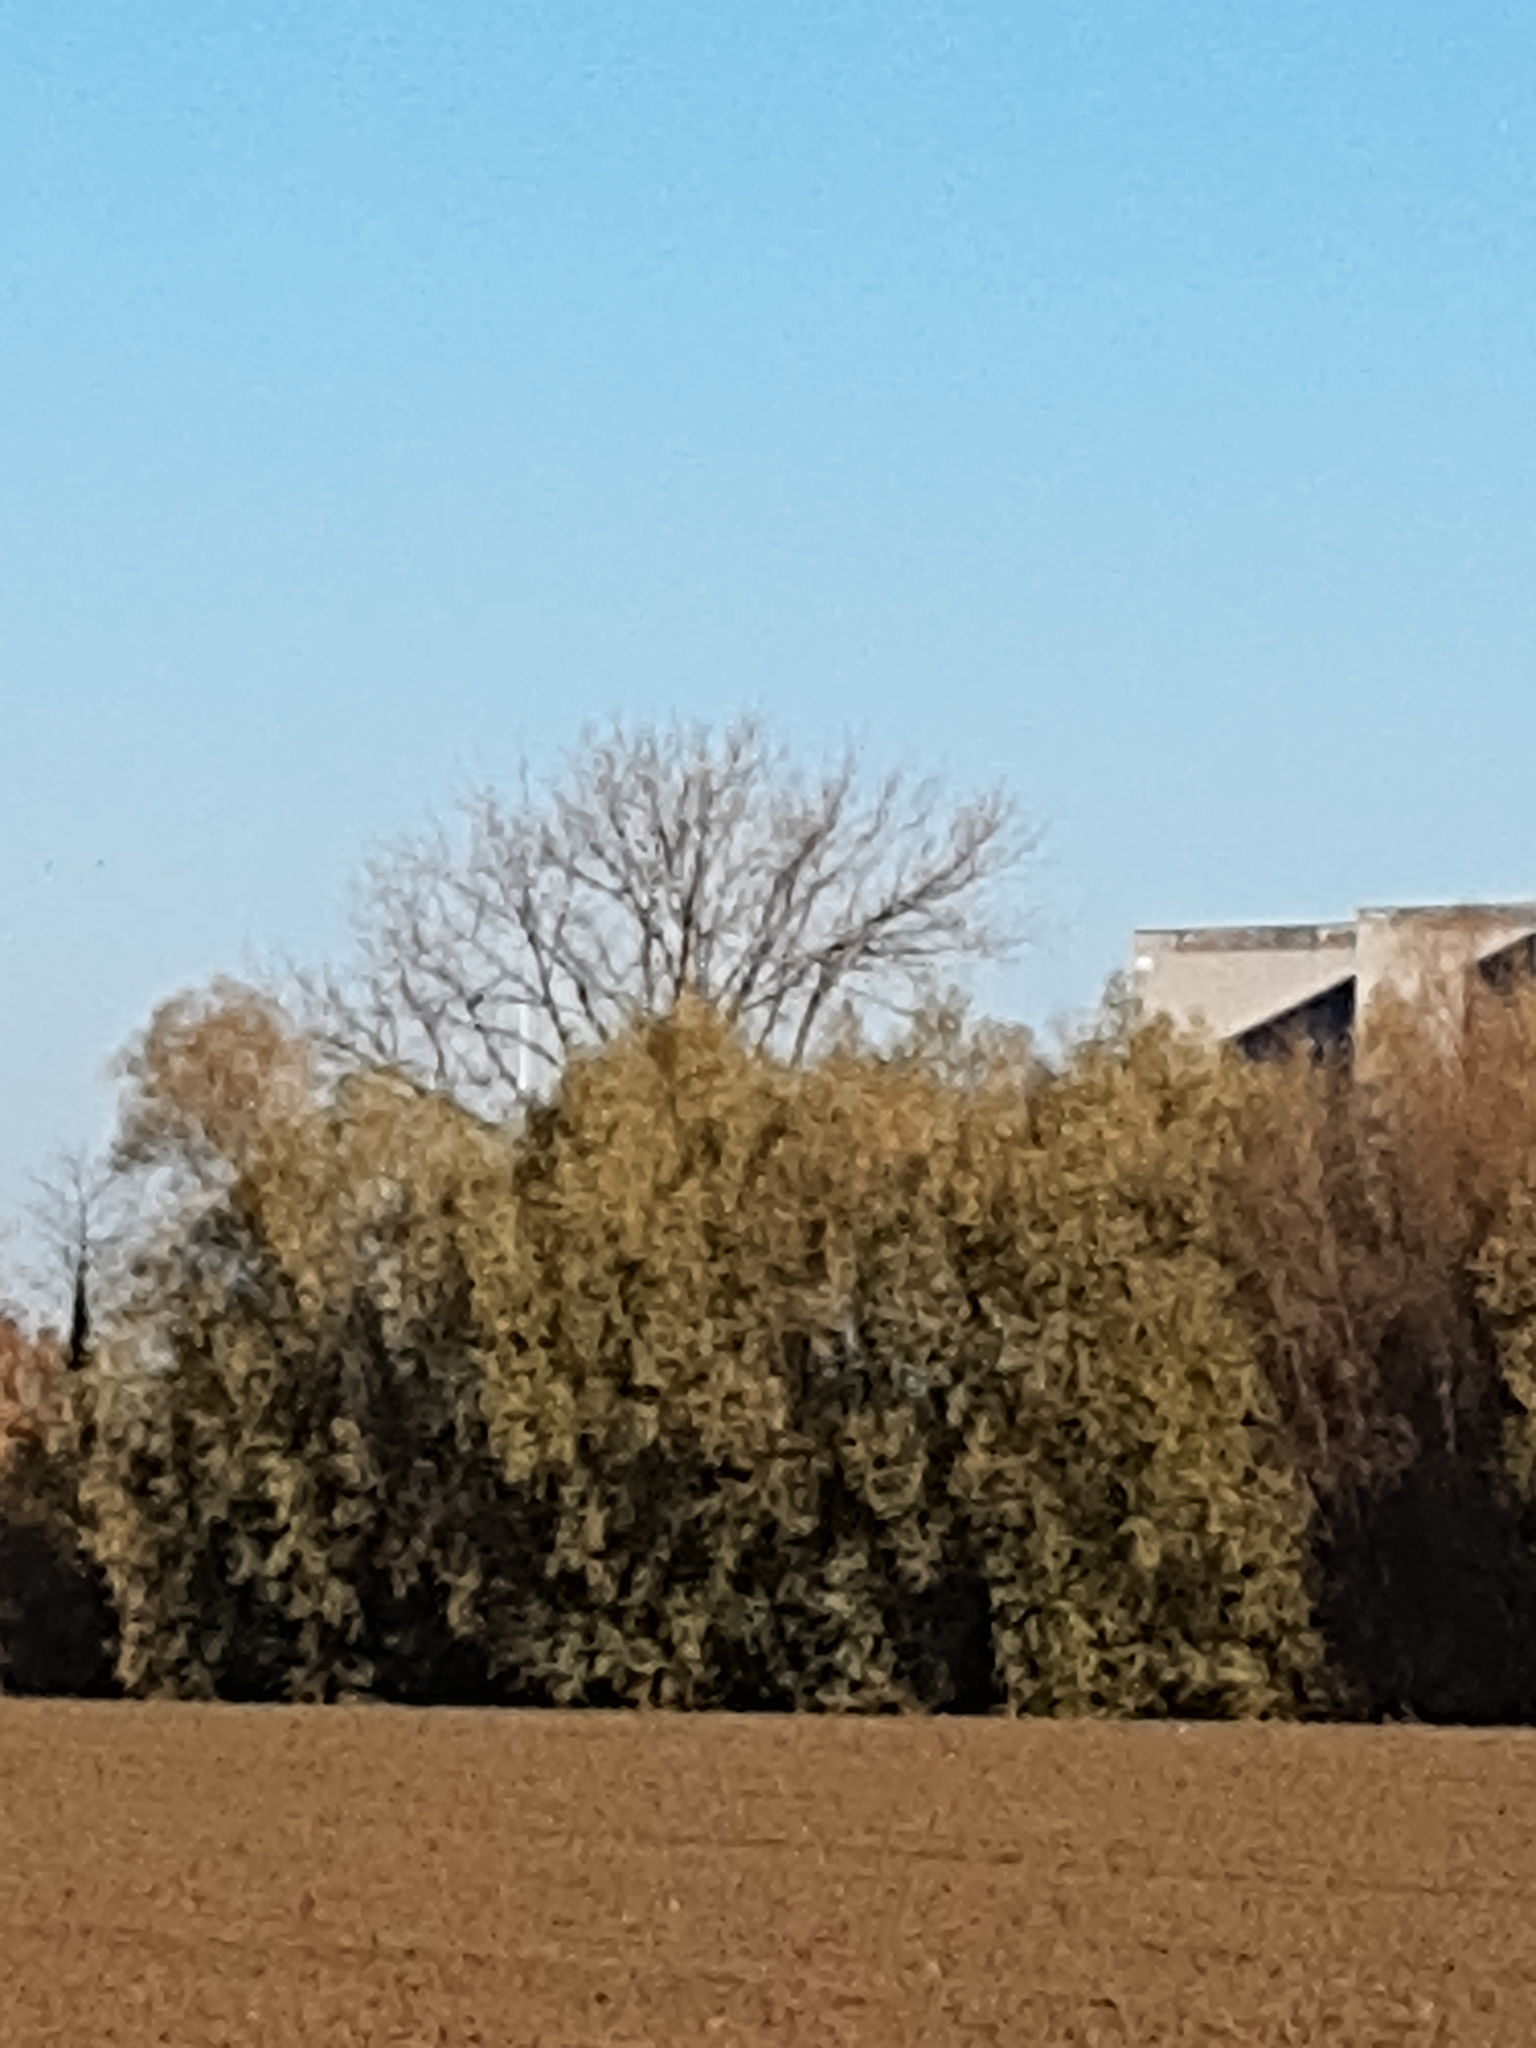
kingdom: Animalia
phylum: Arthropoda
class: Insecta
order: Hymenoptera
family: Vespidae
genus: Vespa
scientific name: Vespa velutina
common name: Asian hornet
